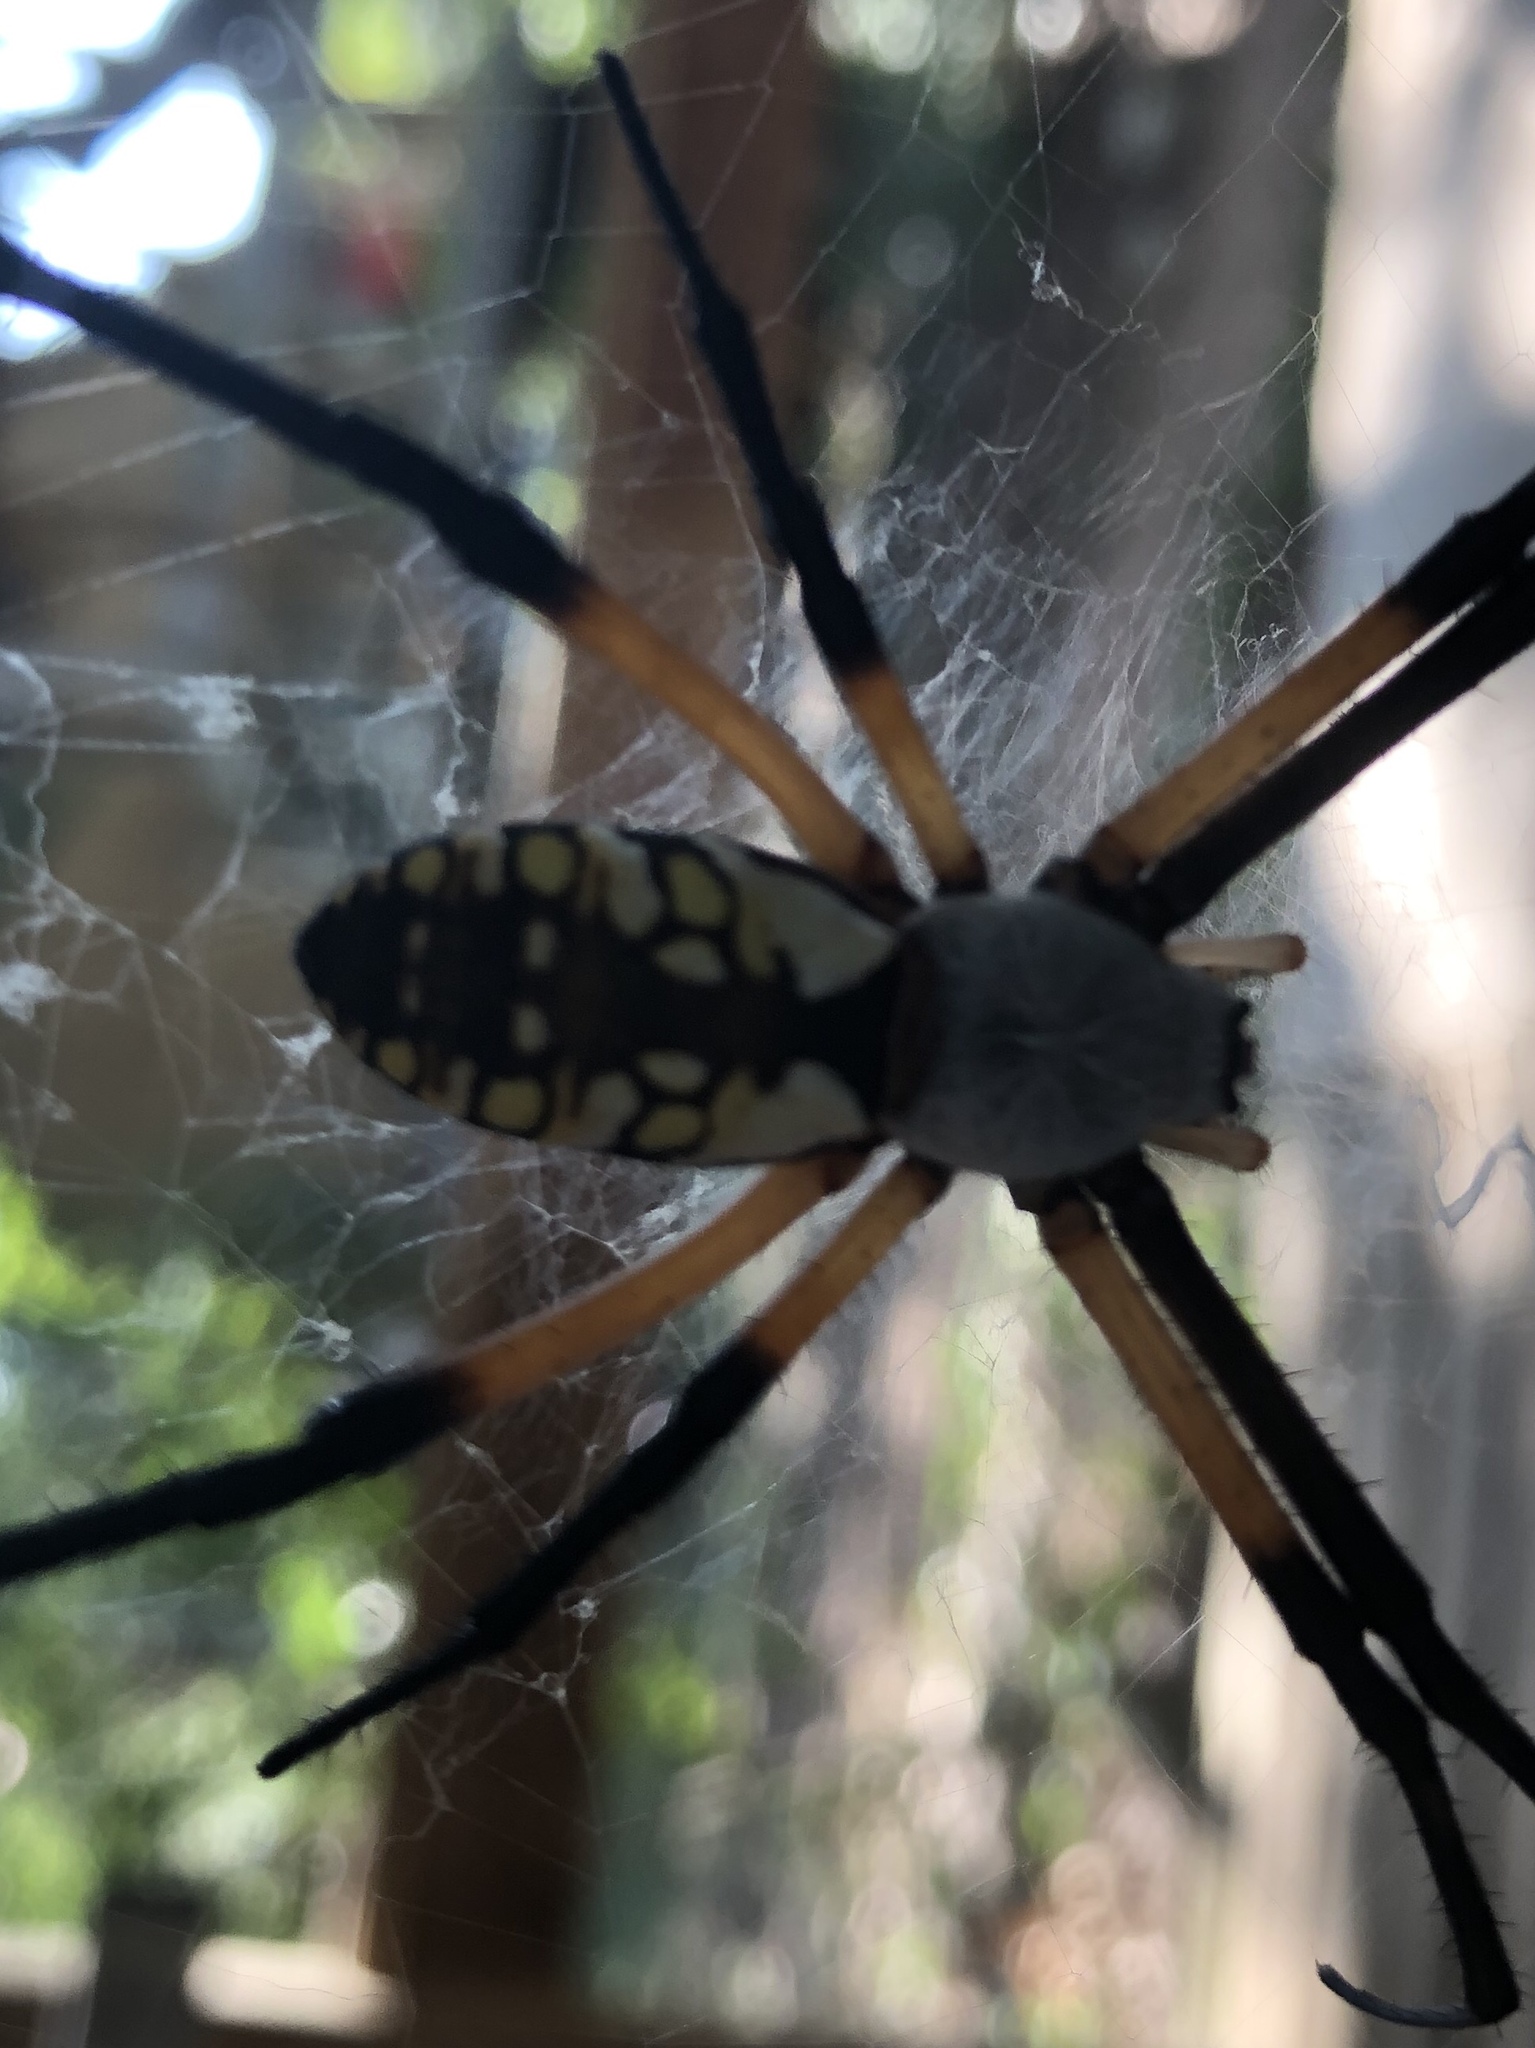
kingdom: Animalia
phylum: Arthropoda
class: Arachnida
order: Araneae
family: Araneidae
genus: Argiope
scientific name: Argiope aurantia
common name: Orb weavers
